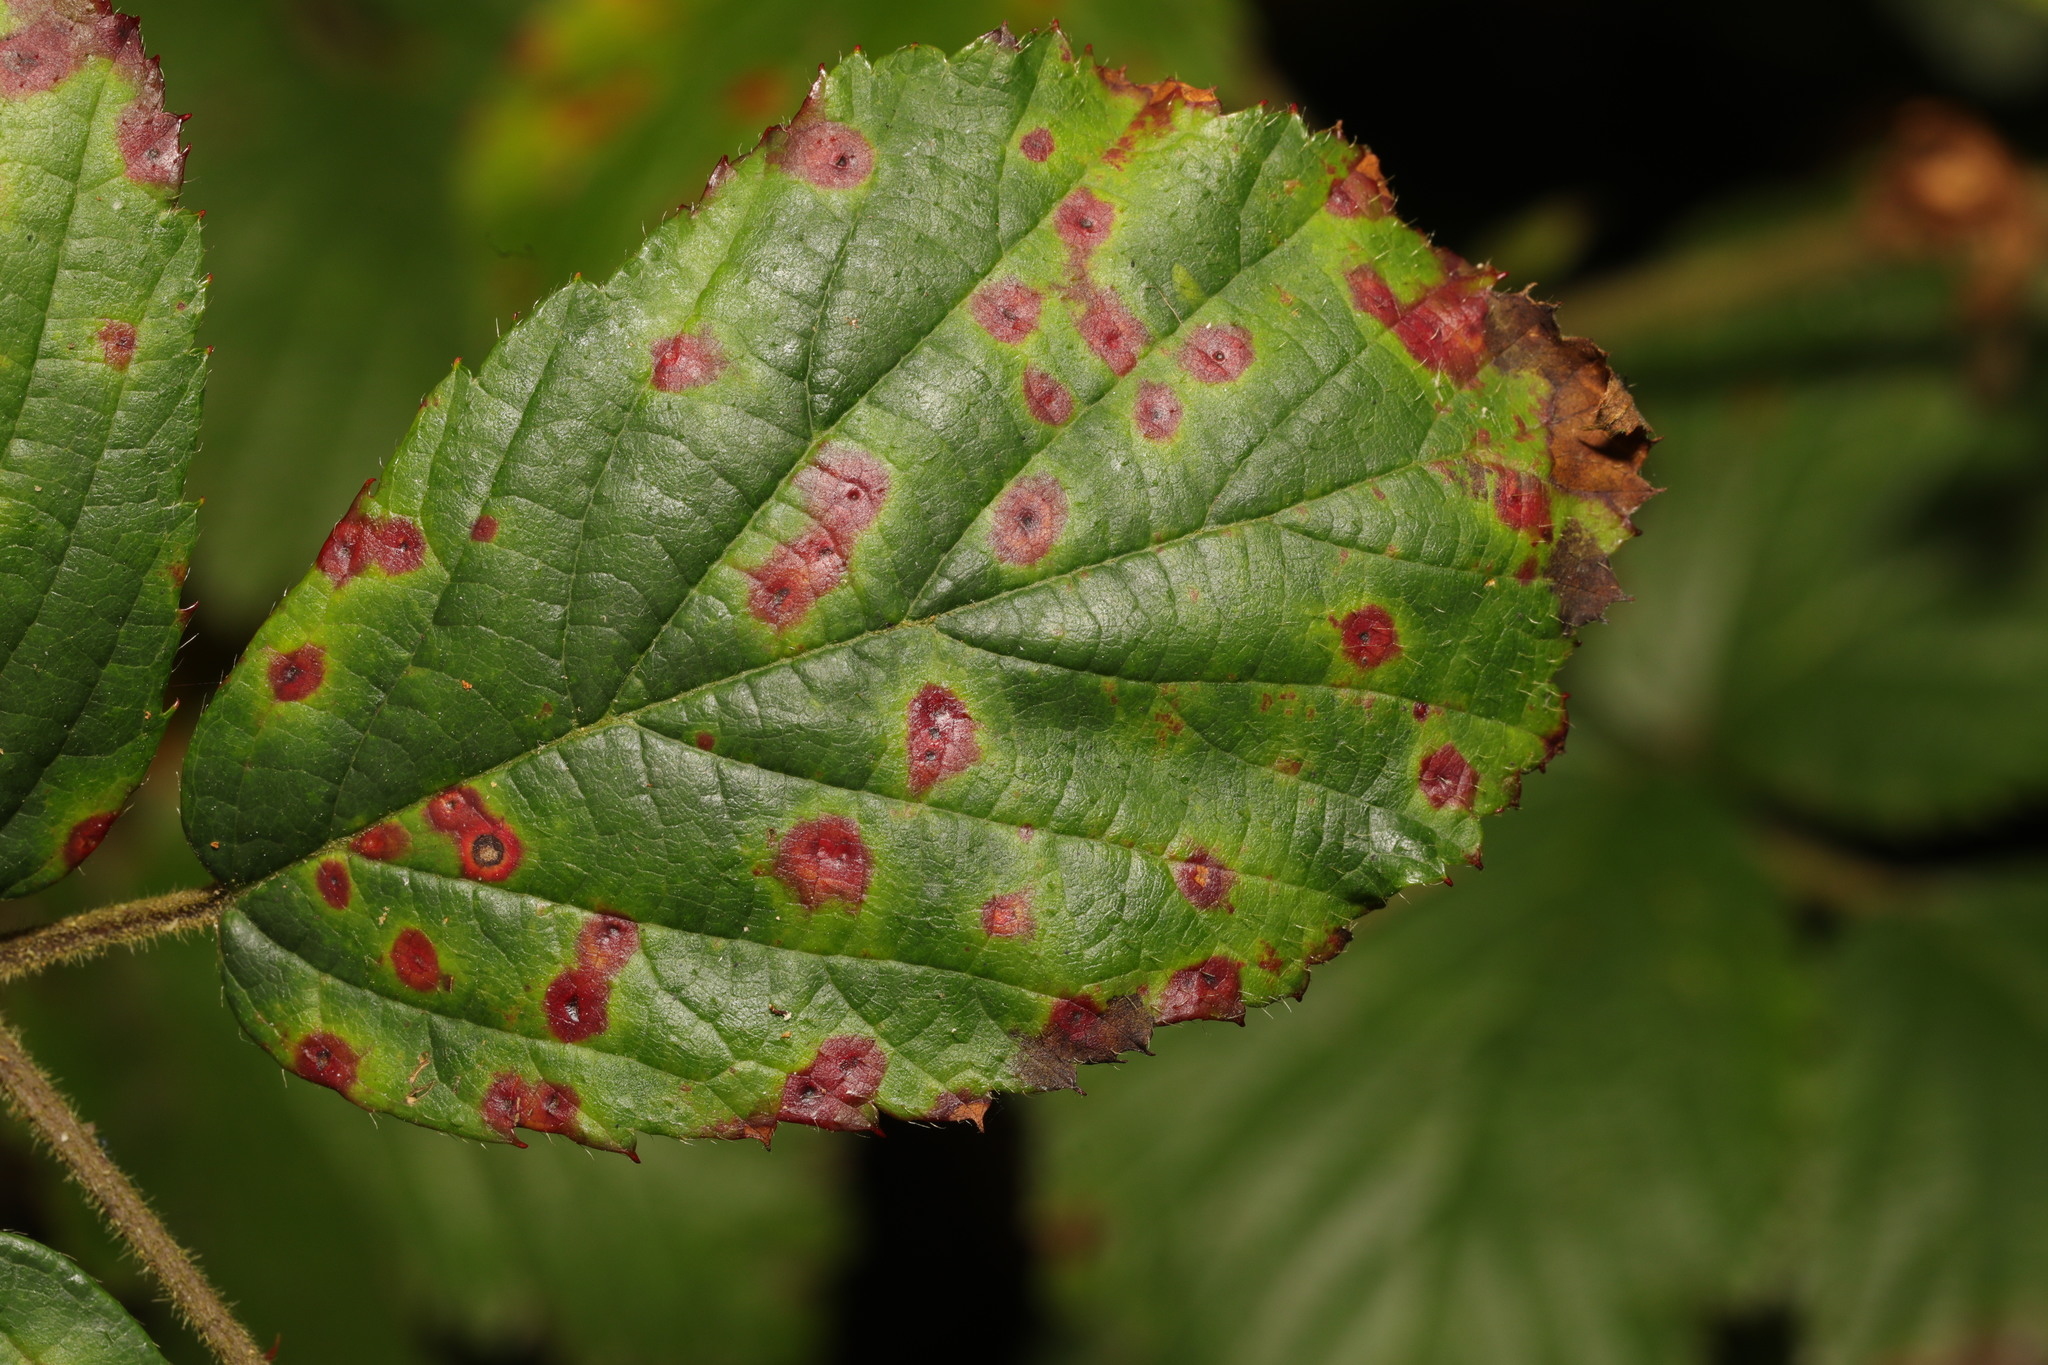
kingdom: Fungi
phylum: Basidiomycota
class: Pucciniomycetes
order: Pucciniales
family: Phragmidiaceae
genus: Phragmidium
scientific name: Phragmidium violaceum
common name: Violet bramble rust
